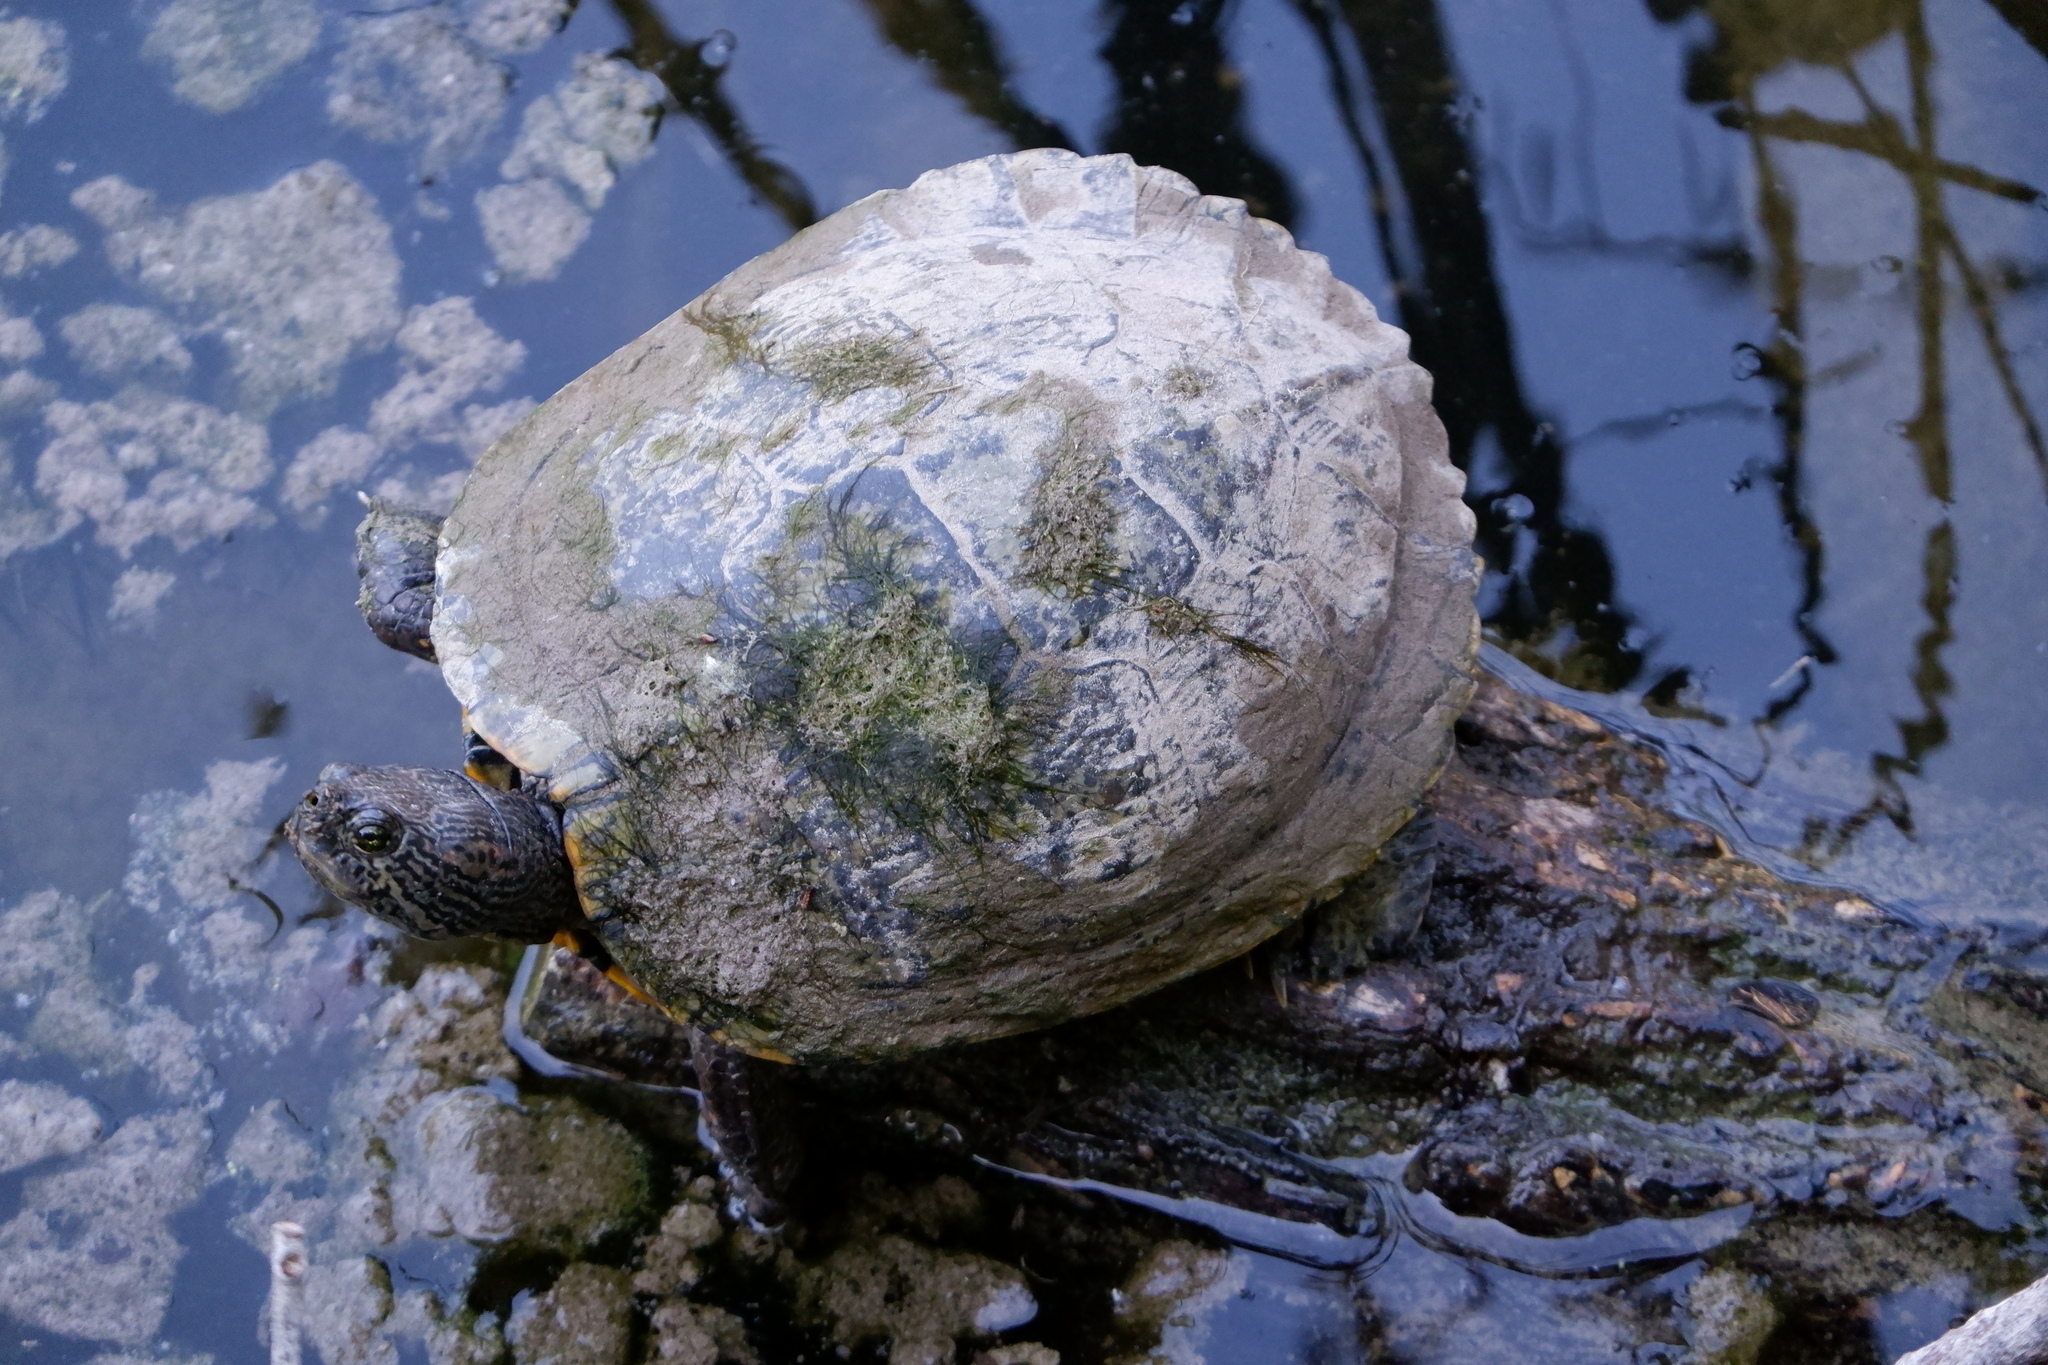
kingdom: Animalia
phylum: Chordata
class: Testudines
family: Emydidae
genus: Trachemys
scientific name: Trachemys scripta
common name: Slider
